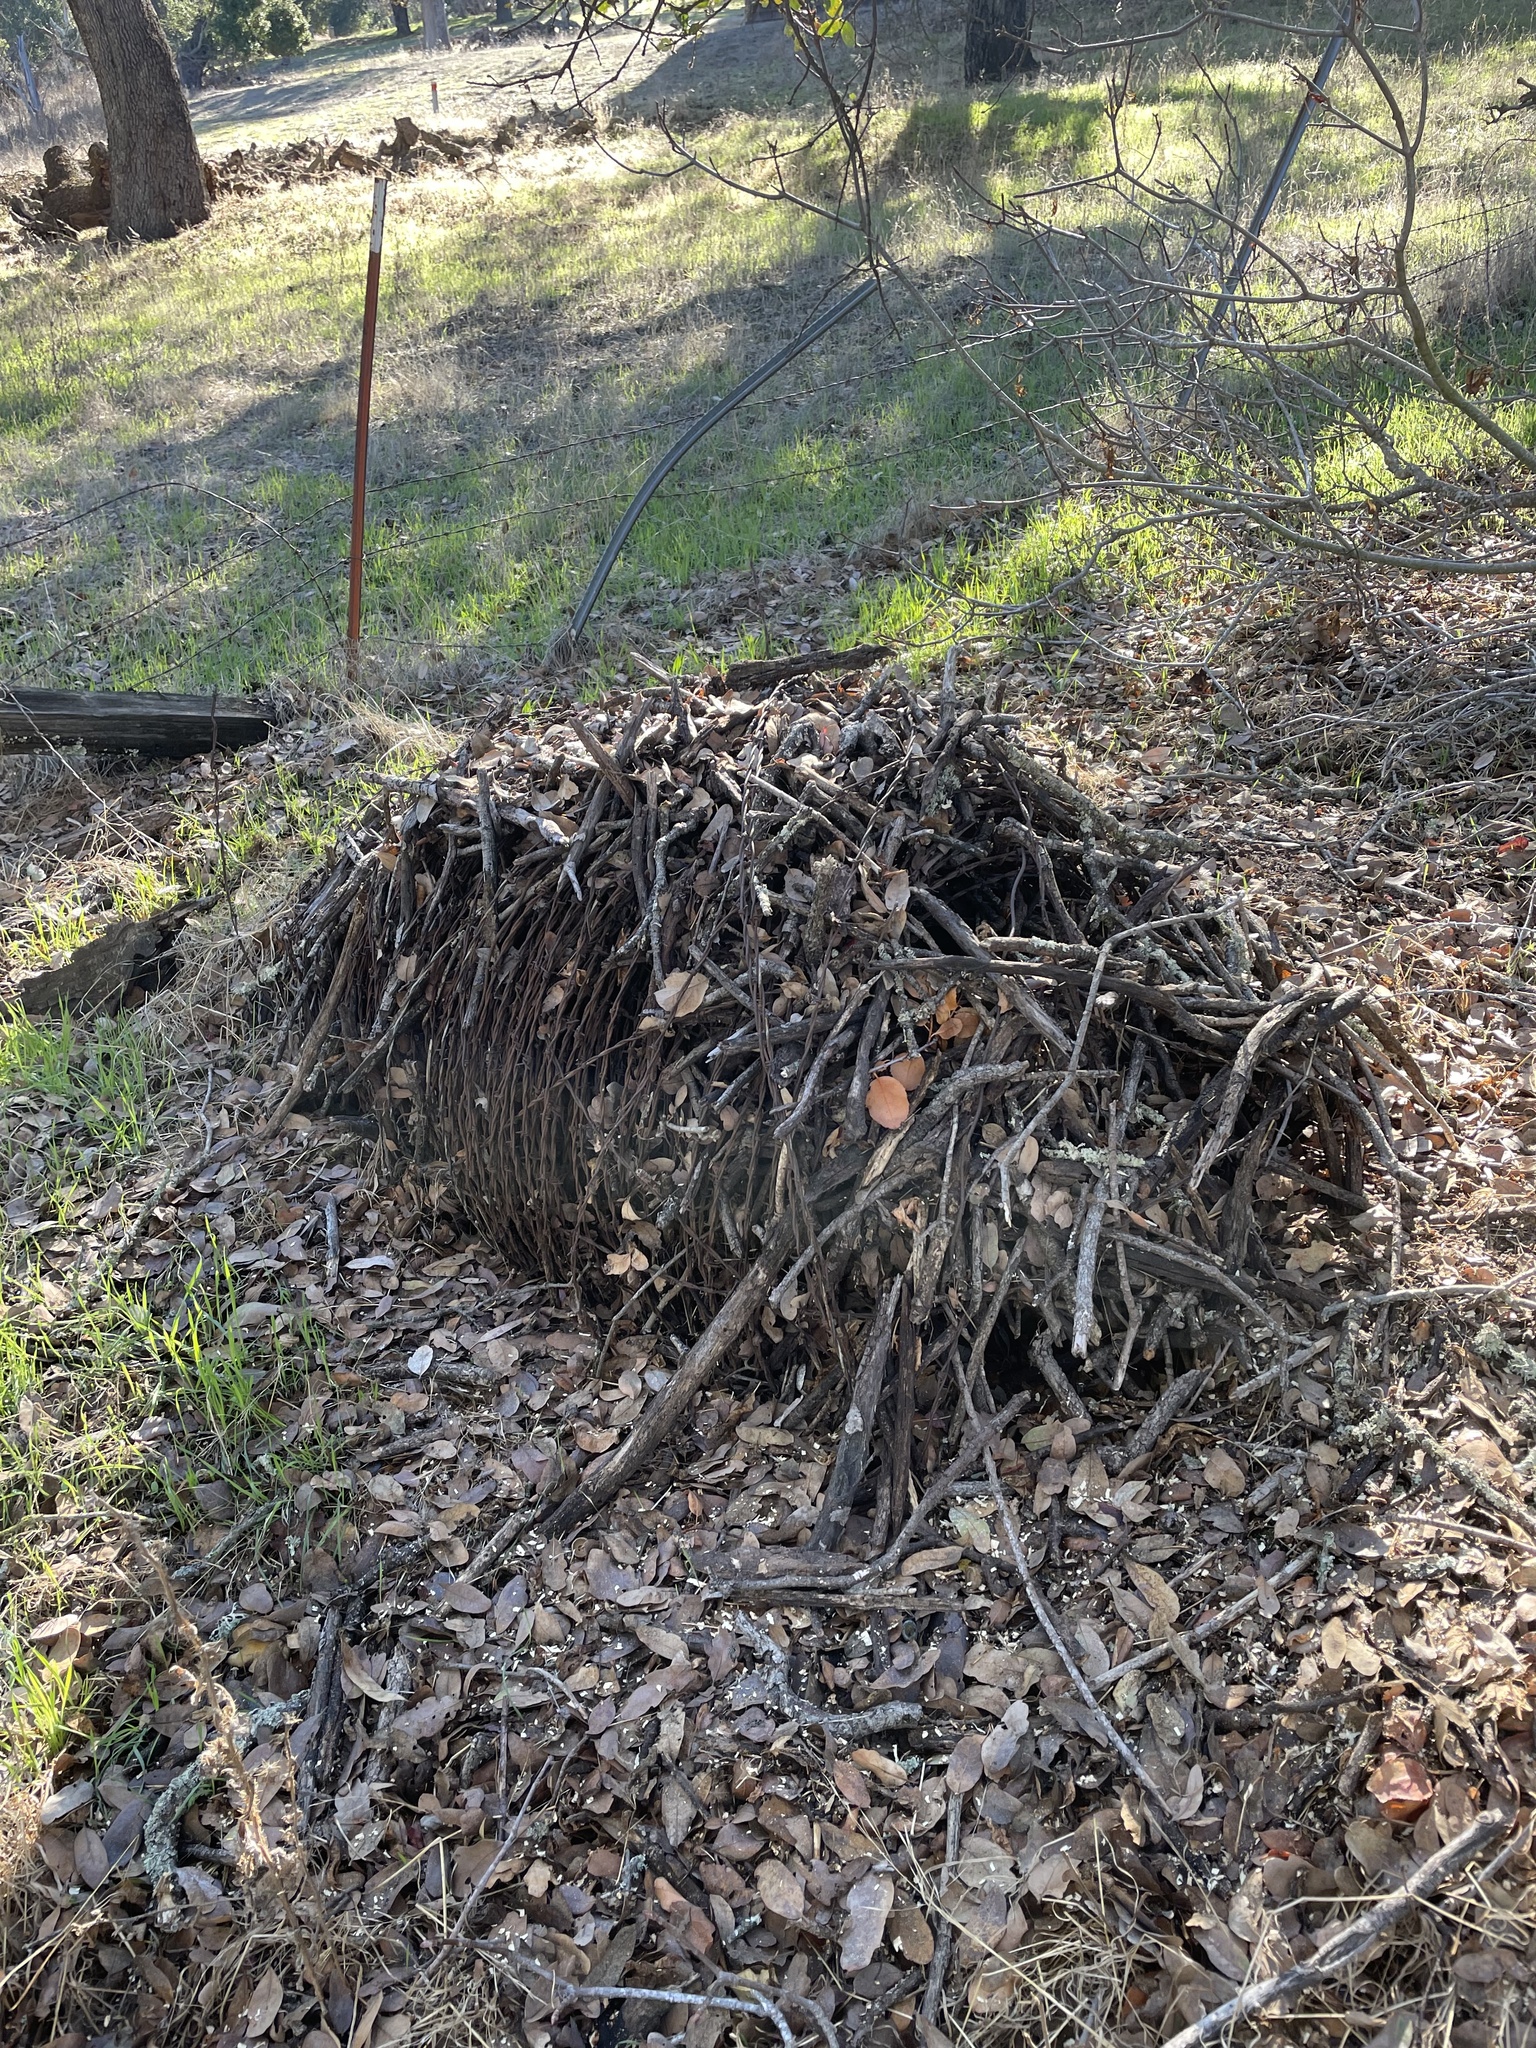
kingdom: Animalia
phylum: Chordata
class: Mammalia
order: Rodentia
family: Cricetidae
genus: Neotoma
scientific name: Neotoma fuscipes
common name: Dusky-footed woodrat
